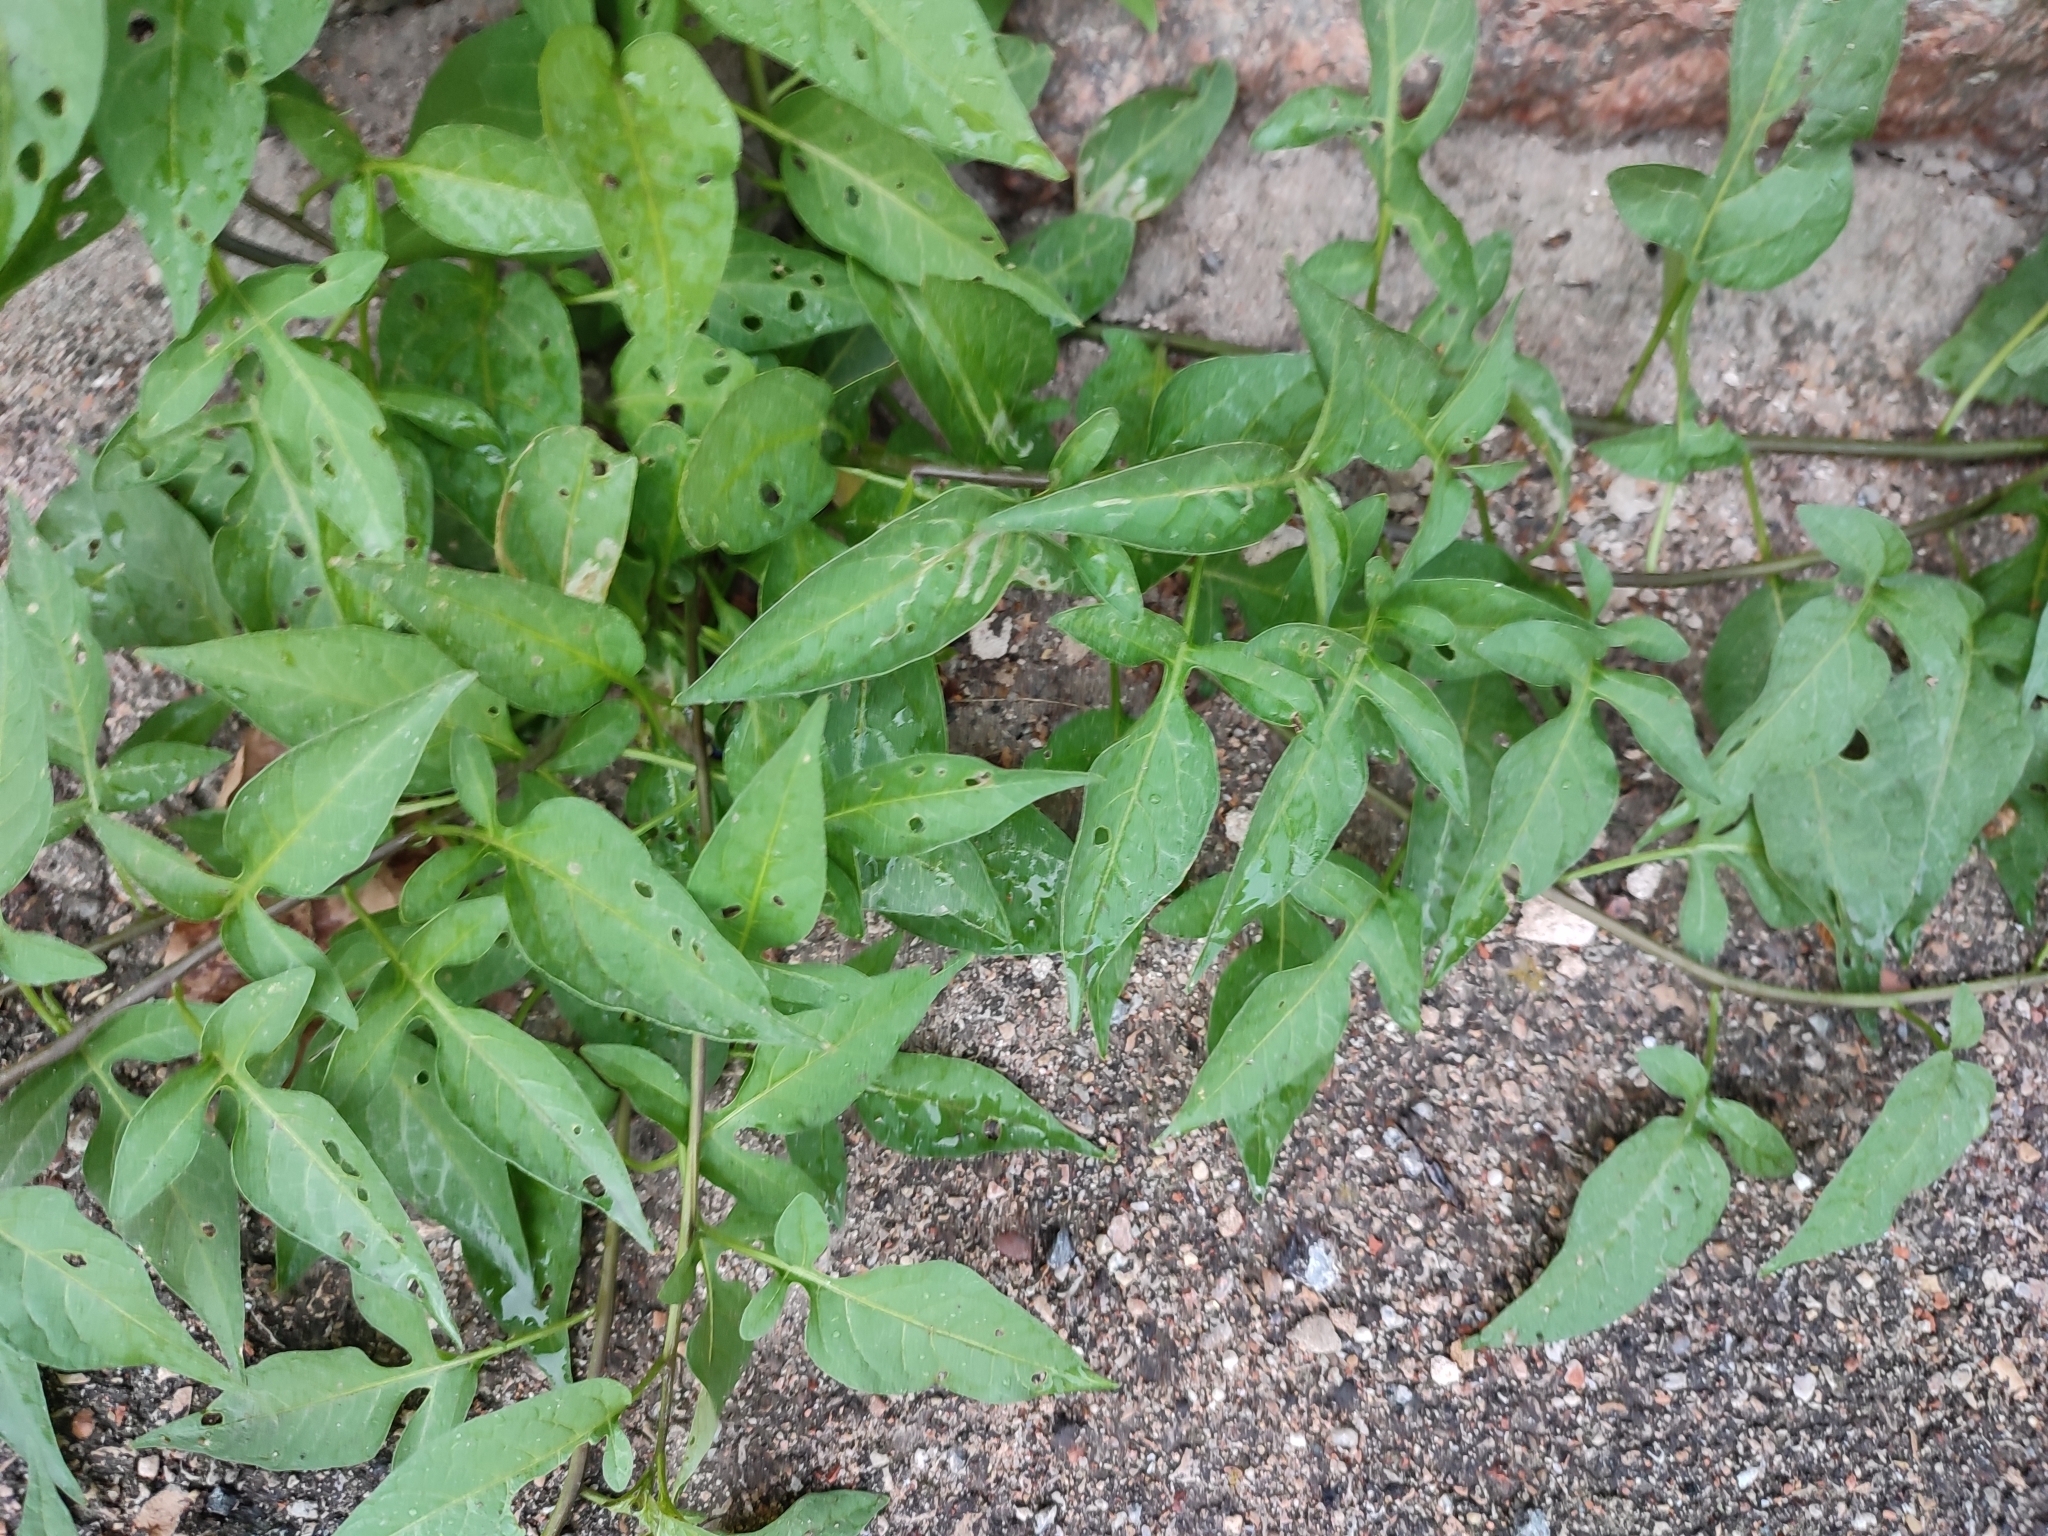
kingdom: Plantae
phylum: Tracheophyta
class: Magnoliopsida
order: Solanales
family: Solanaceae
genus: Solanum
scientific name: Solanum dulcamara
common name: Climbing nightshade
